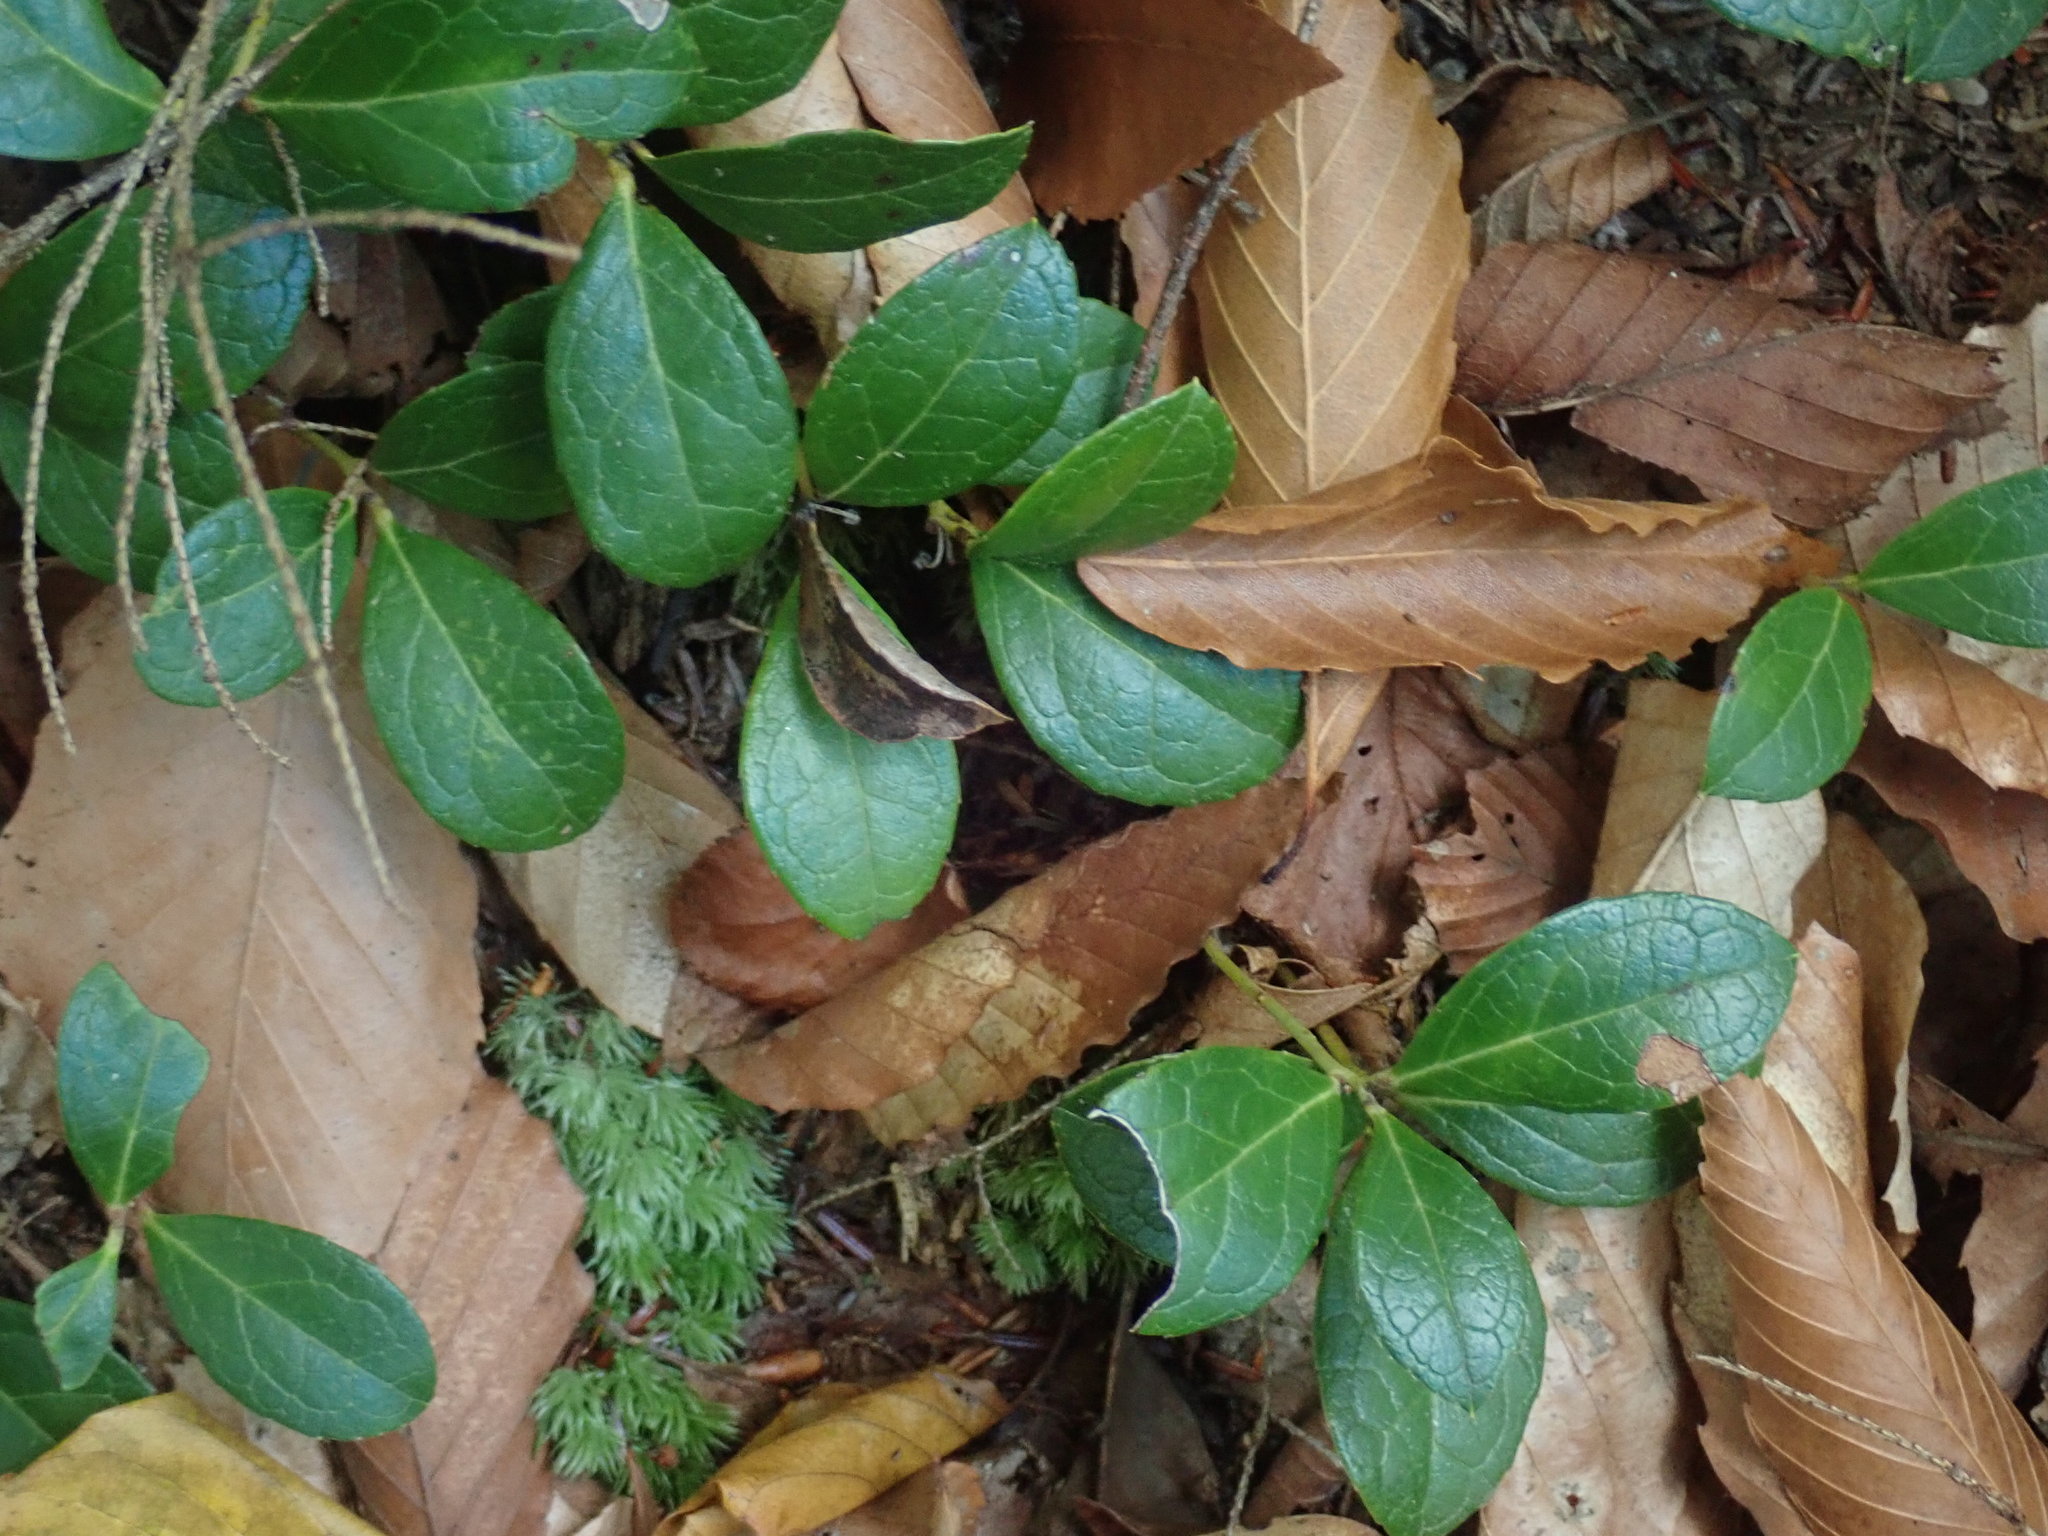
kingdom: Plantae
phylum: Tracheophyta
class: Magnoliopsida
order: Ericales
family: Ericaceae
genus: Gaultheria
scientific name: Gaultheria procumbens
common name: Checkerberry
